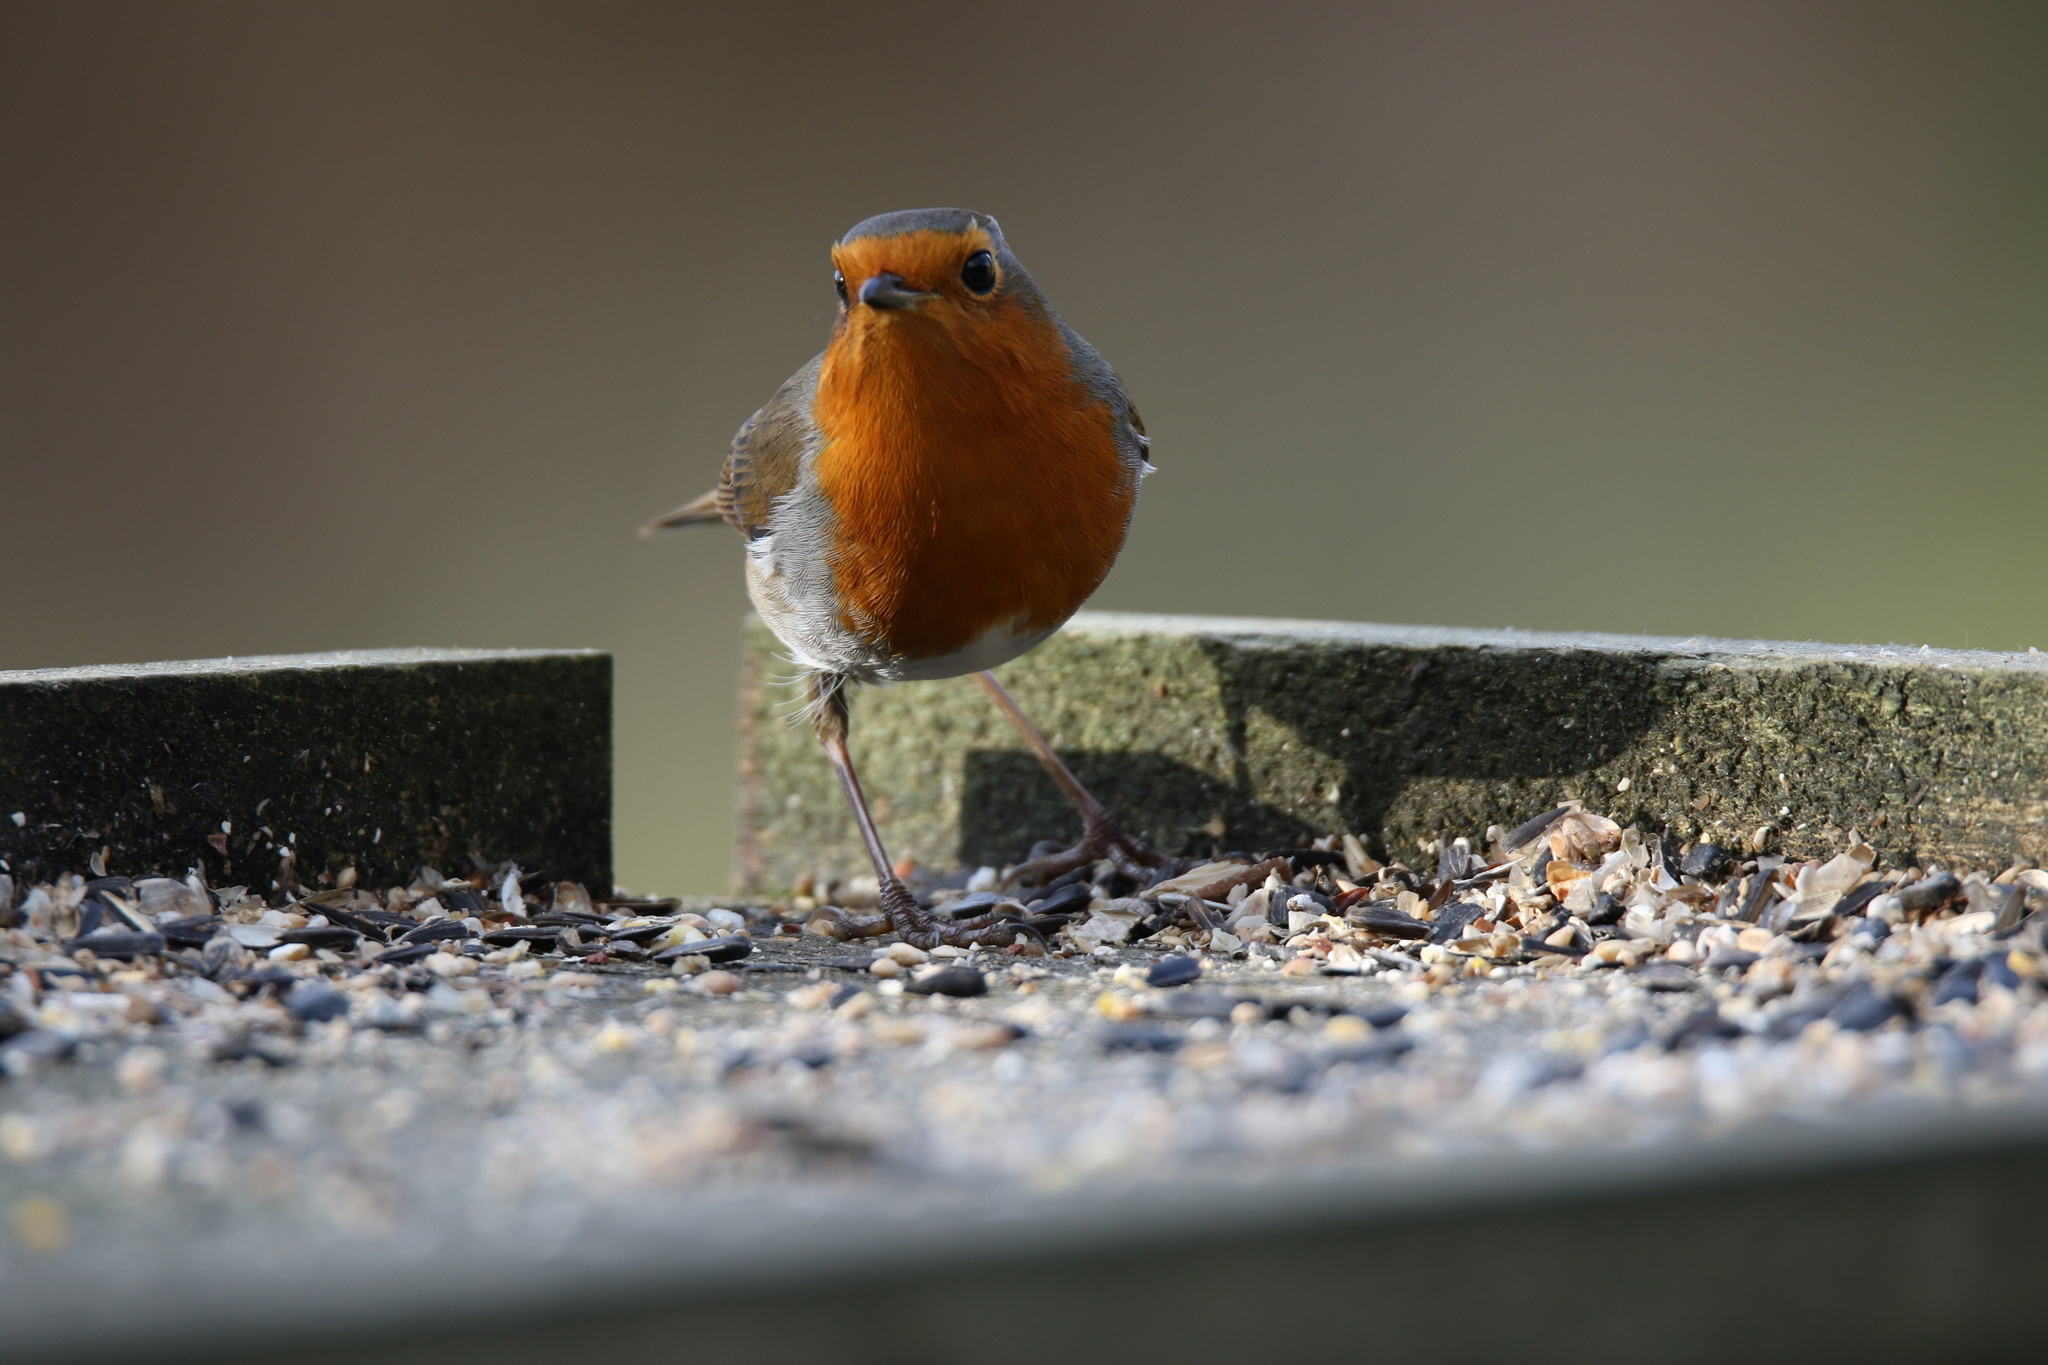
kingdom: Animalia
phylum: Chordata
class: Aves
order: Passeriformes
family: Muscicapidae
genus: Erithacus
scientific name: Erithacus rubecula
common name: European robin
